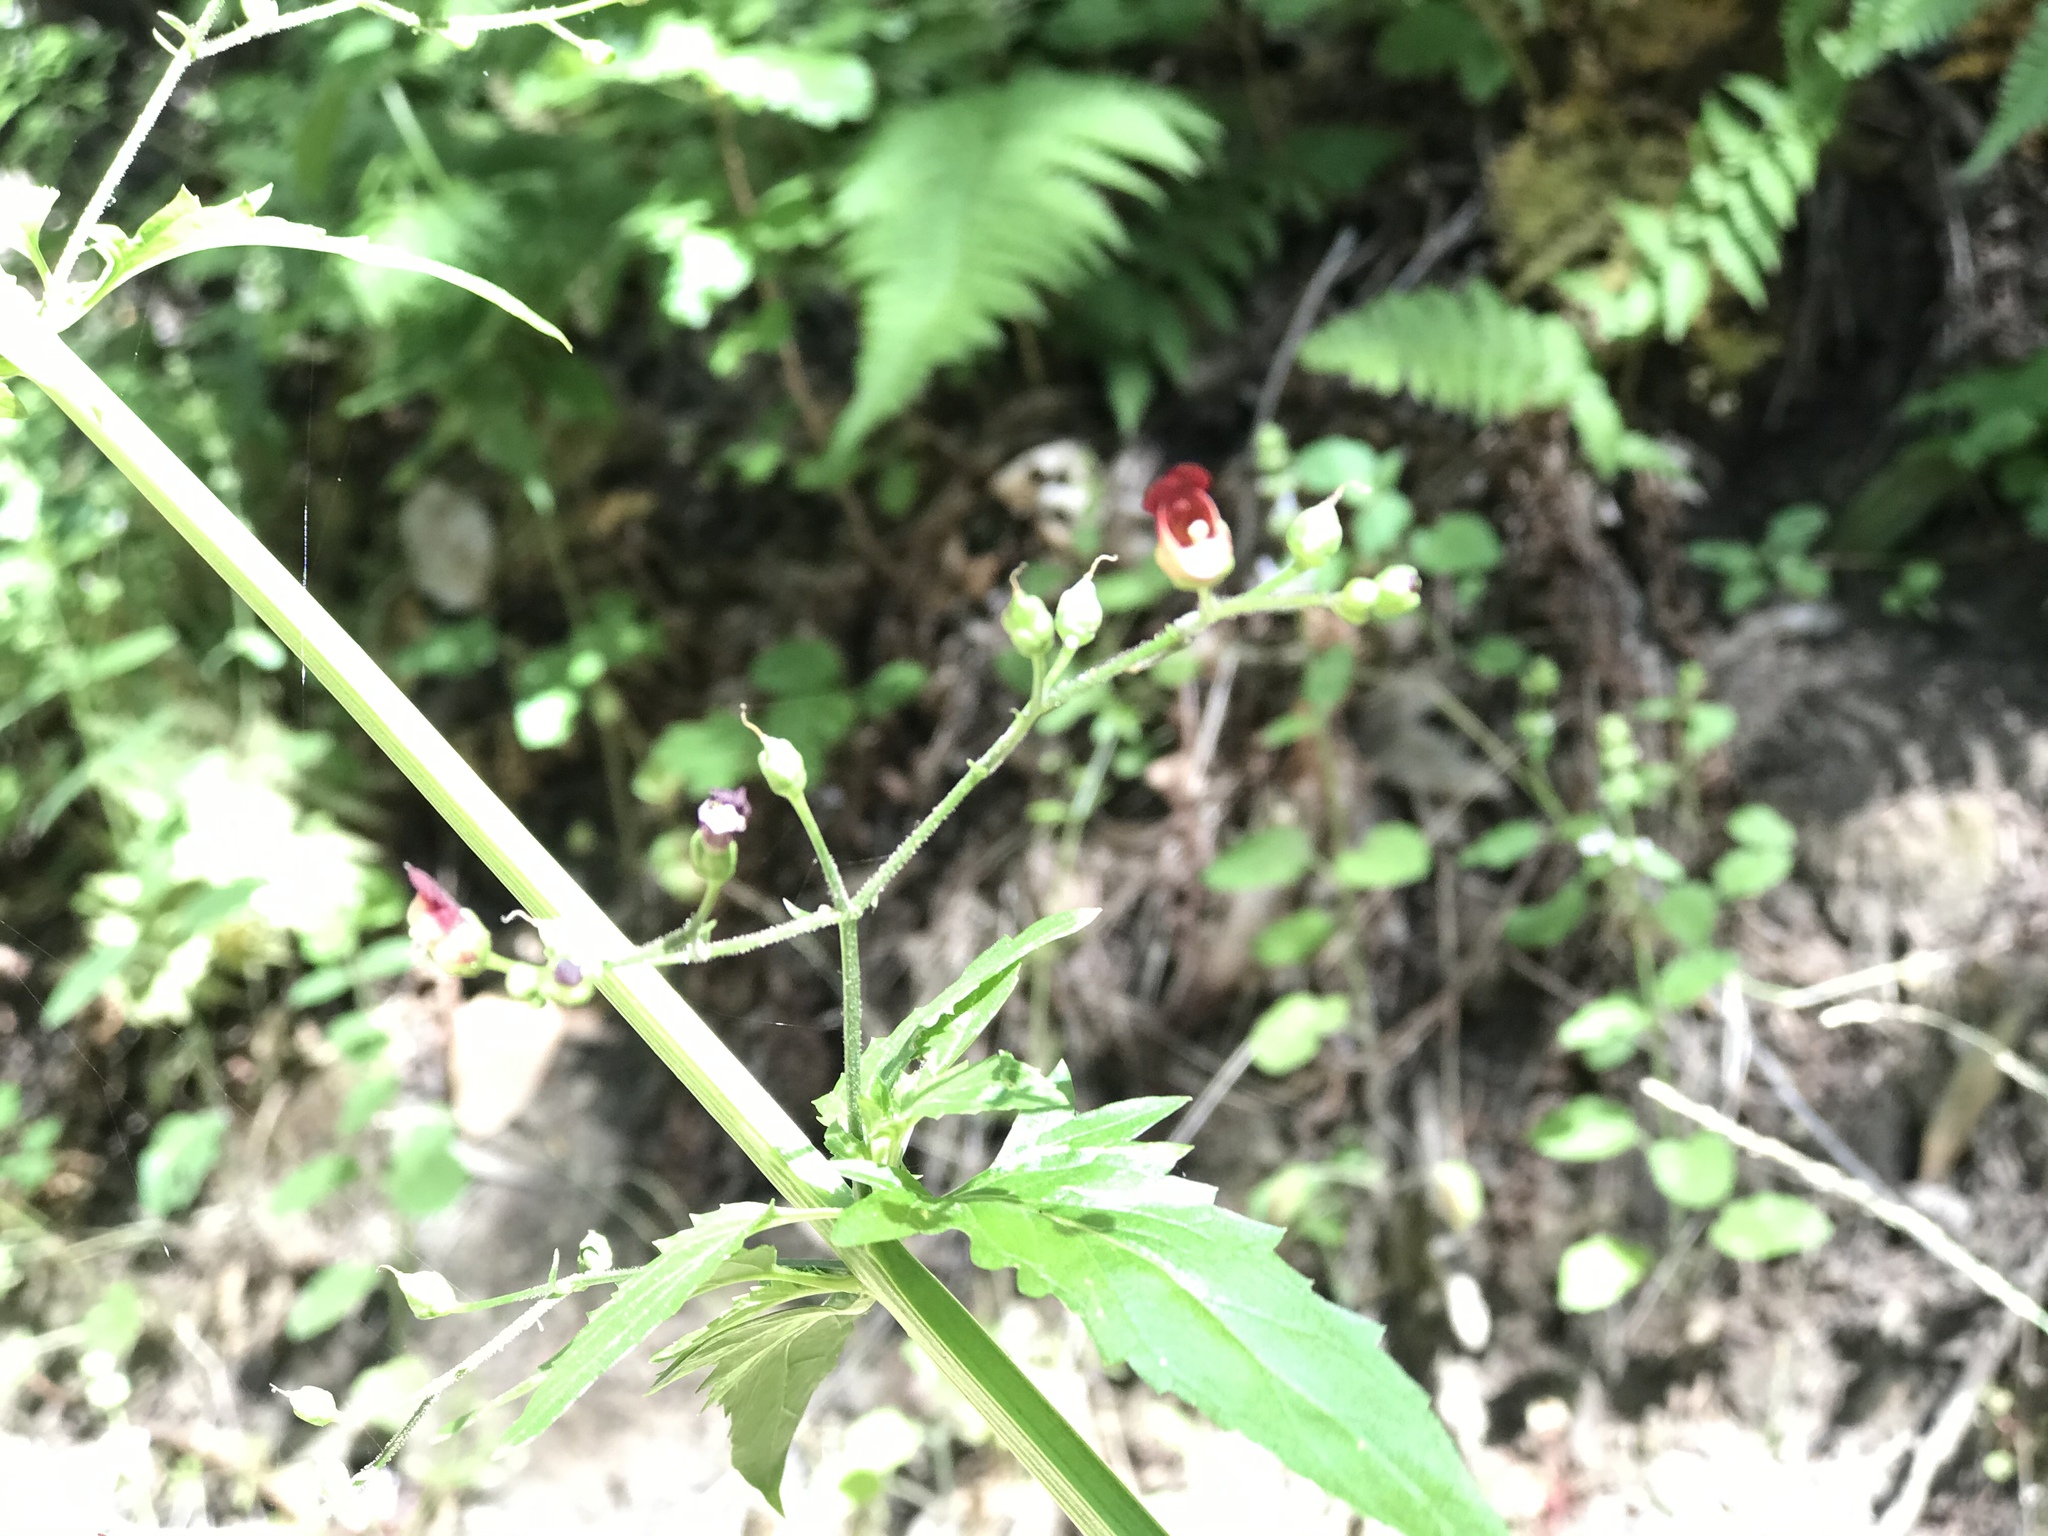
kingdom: Plantae
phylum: Tracheophyta
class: Magnoliopsida
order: Lamiales
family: Scrophulariaceae
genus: Scrophularia
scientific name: Scrophularia californica
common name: California figwort
